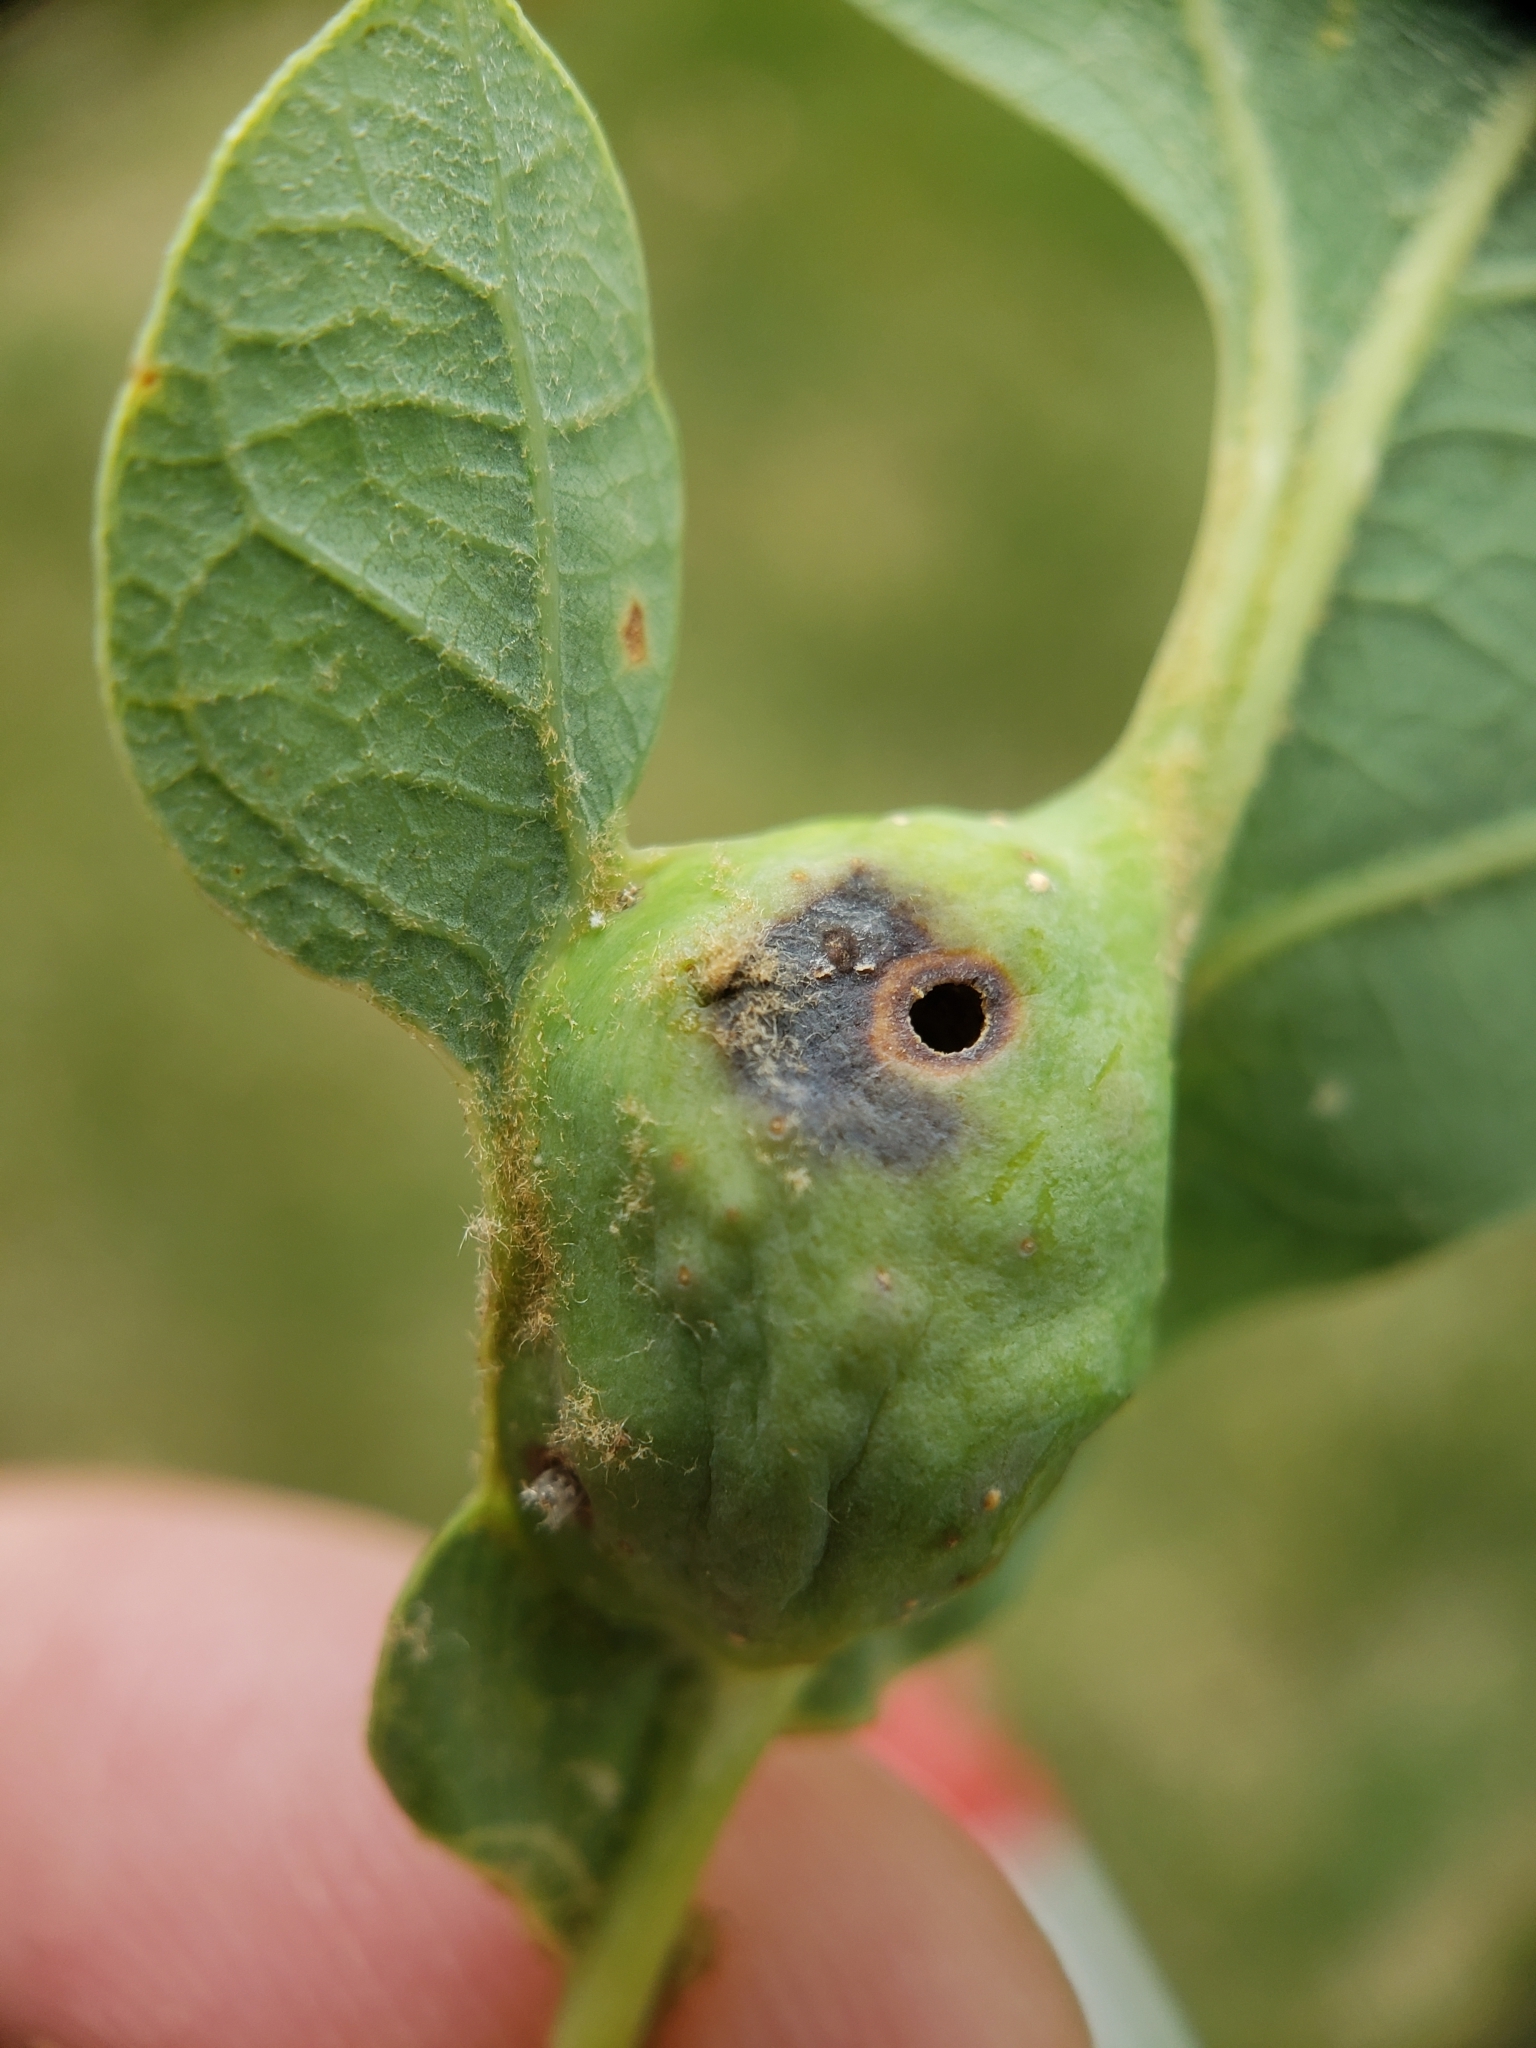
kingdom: Animalia
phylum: Arthropoda
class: Insecta
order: Hymenoptera
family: Cynipidae
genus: Andricus
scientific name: Andricus
